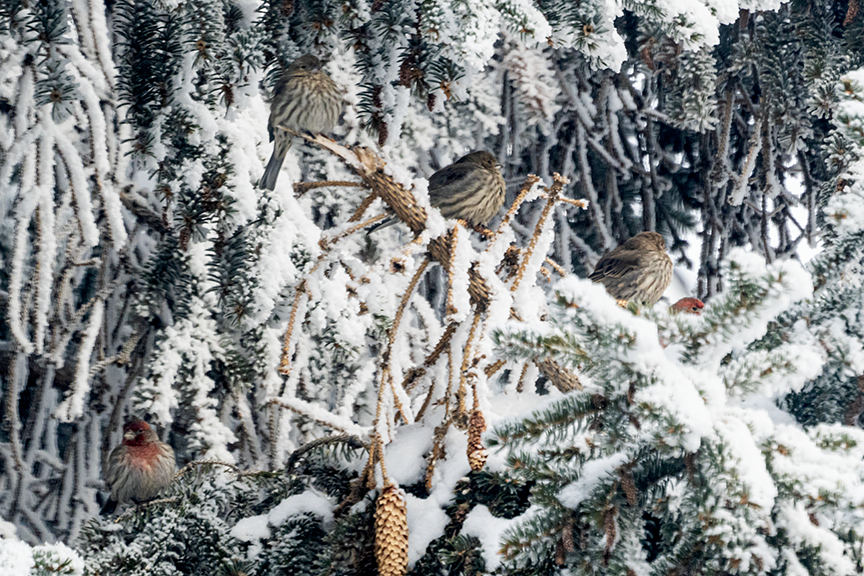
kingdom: Animalia
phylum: Chordata
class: Aves
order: Passeriformes
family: Fringillidae
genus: Haemorhous
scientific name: Haemorhous mexicanus
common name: House finch
